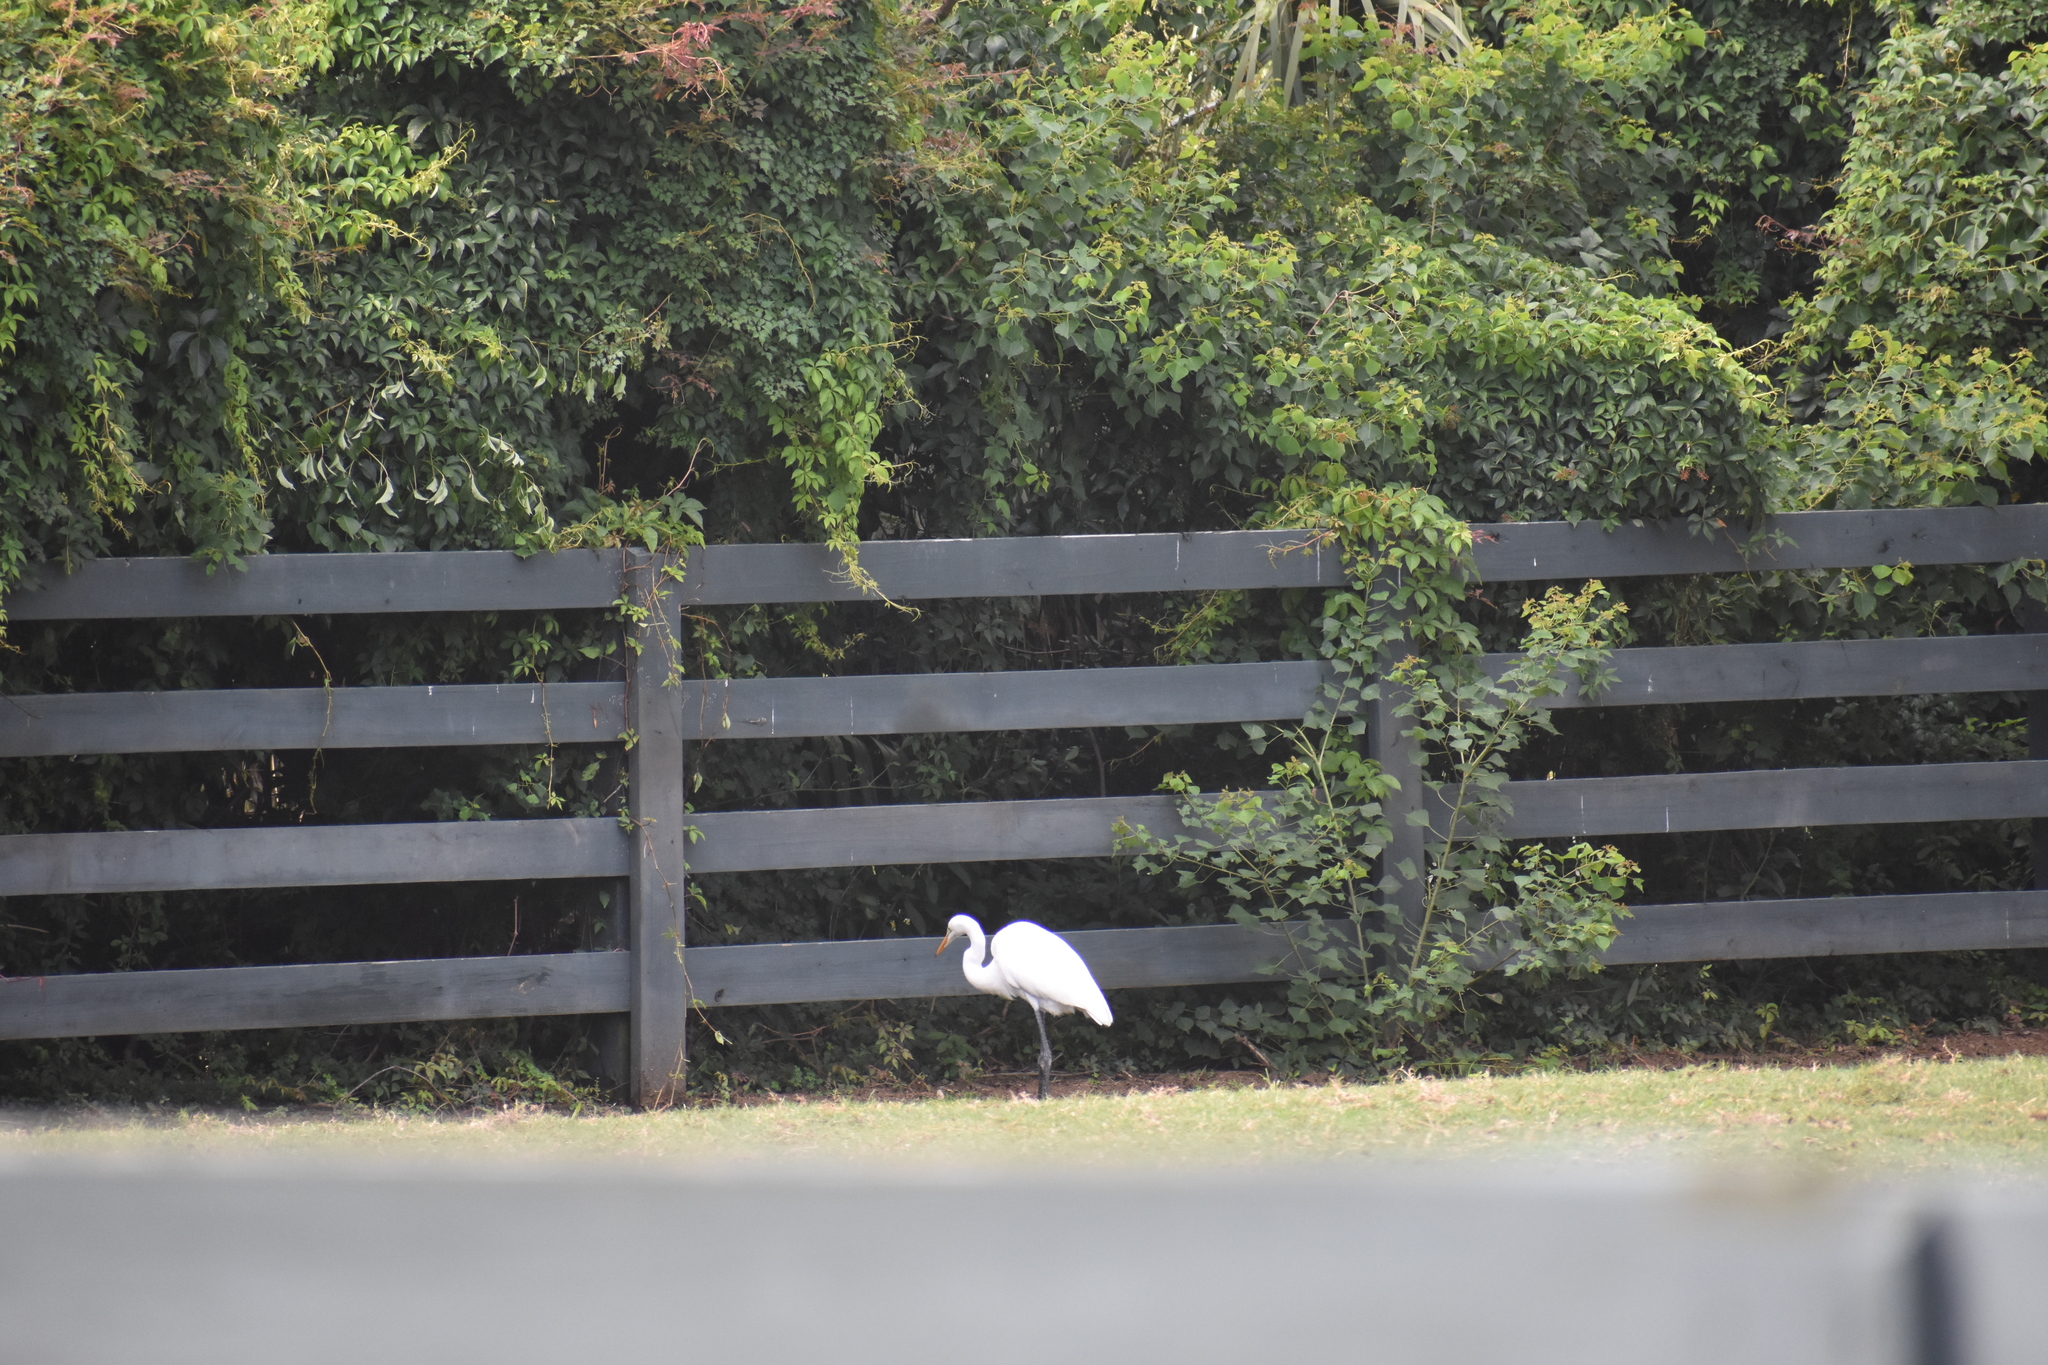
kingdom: Animalia
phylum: Chordata
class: Aves
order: Pelecaniformes
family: Ardeidae
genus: Ardea
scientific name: Ardea alba
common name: Great egret
